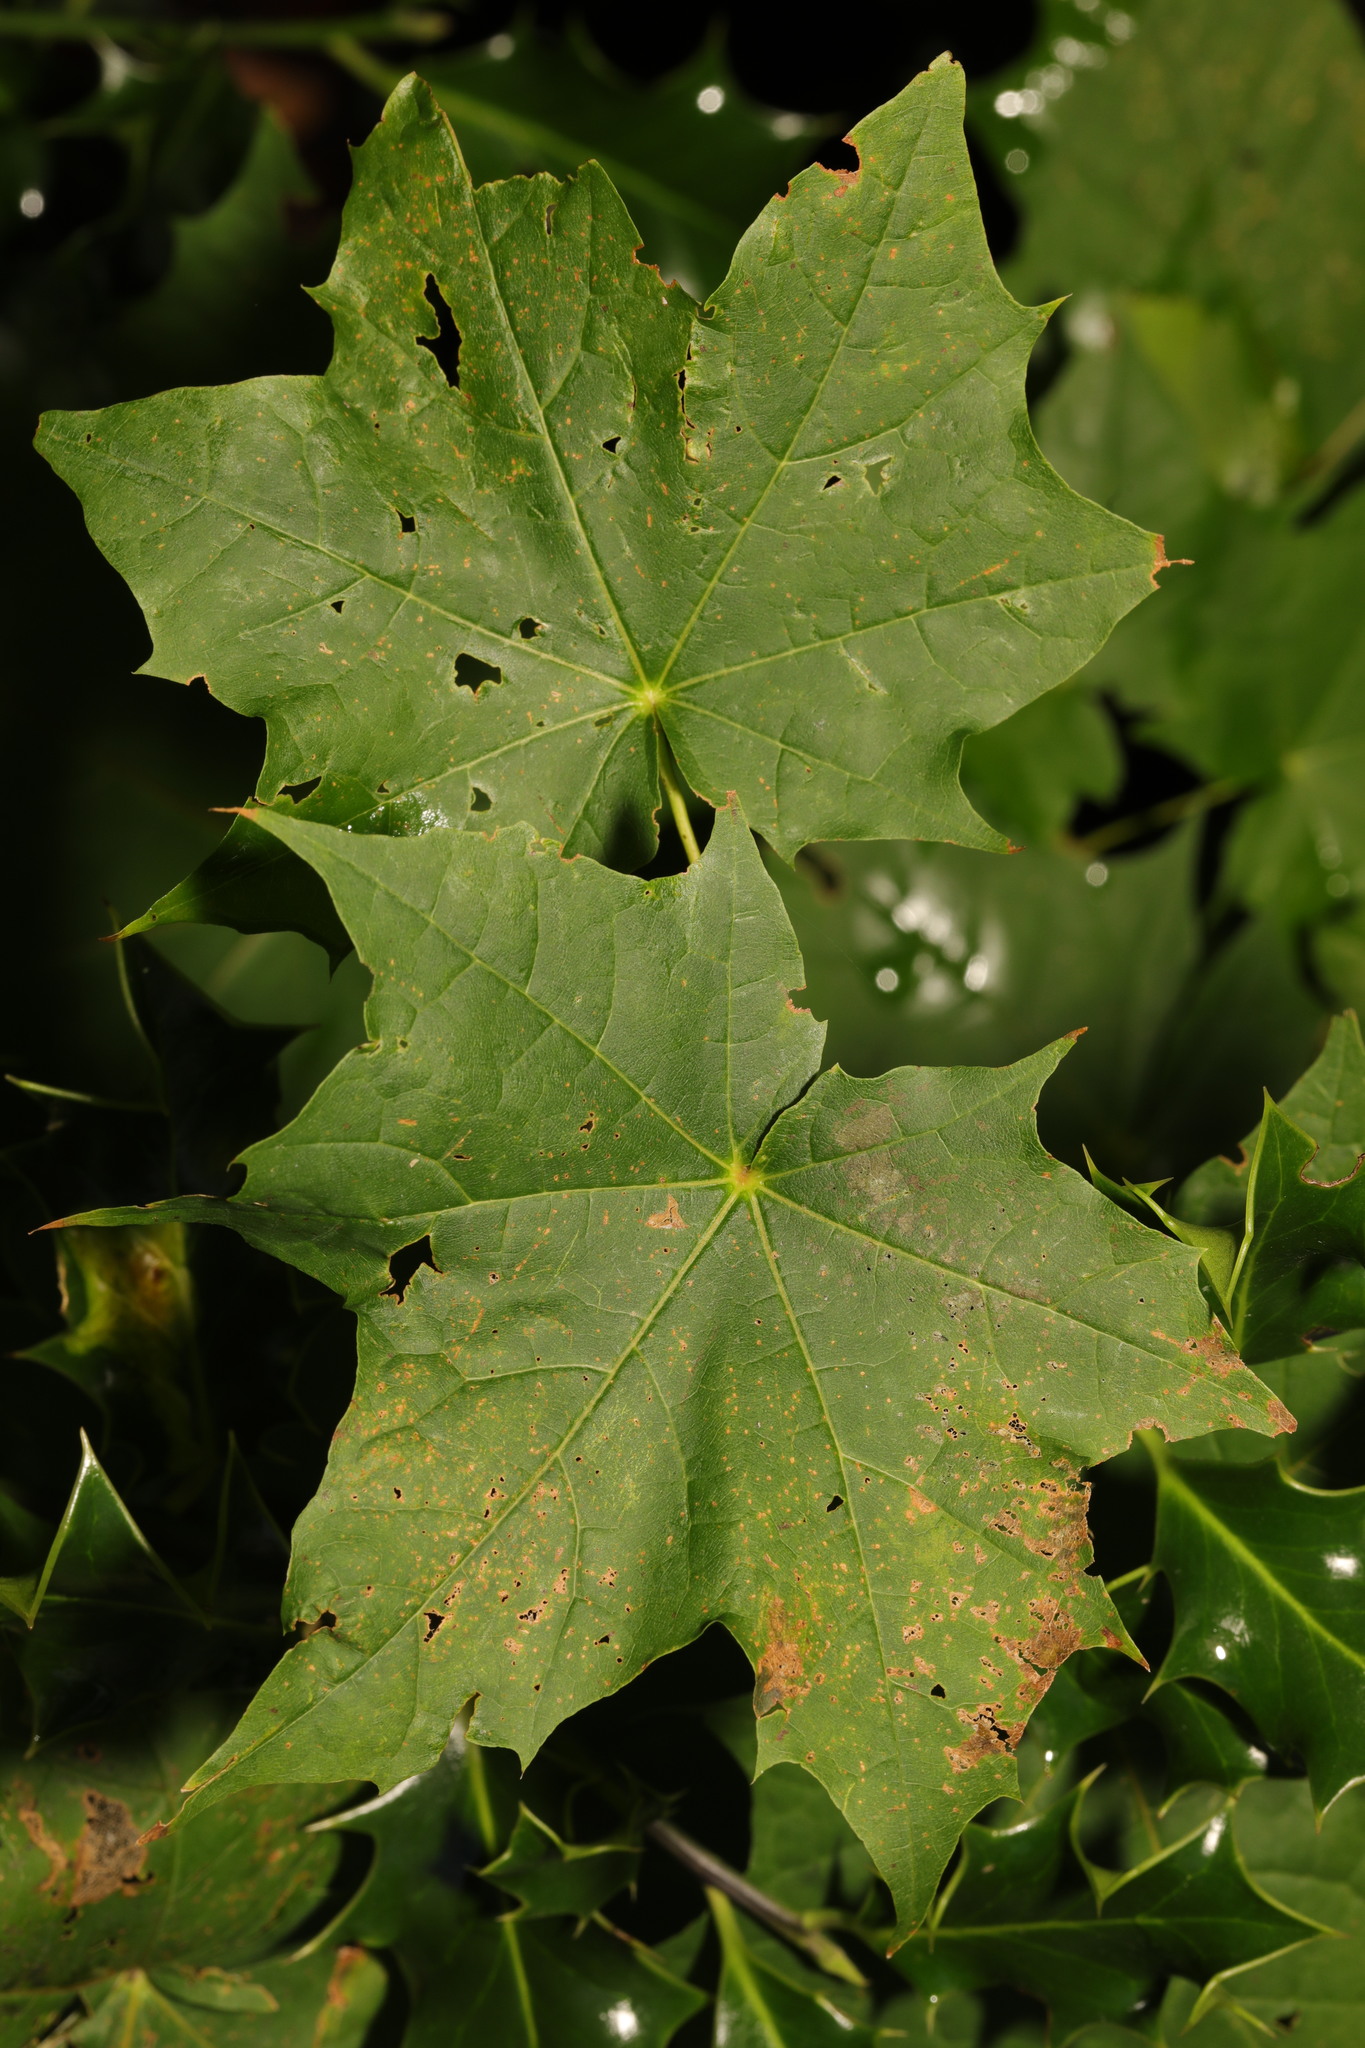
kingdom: Plantae
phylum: Tracheophyta
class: Magnoliopsida
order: Sapindales
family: Sapindaceae
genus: Acer
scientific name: Acer platanoides
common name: Norway maple
